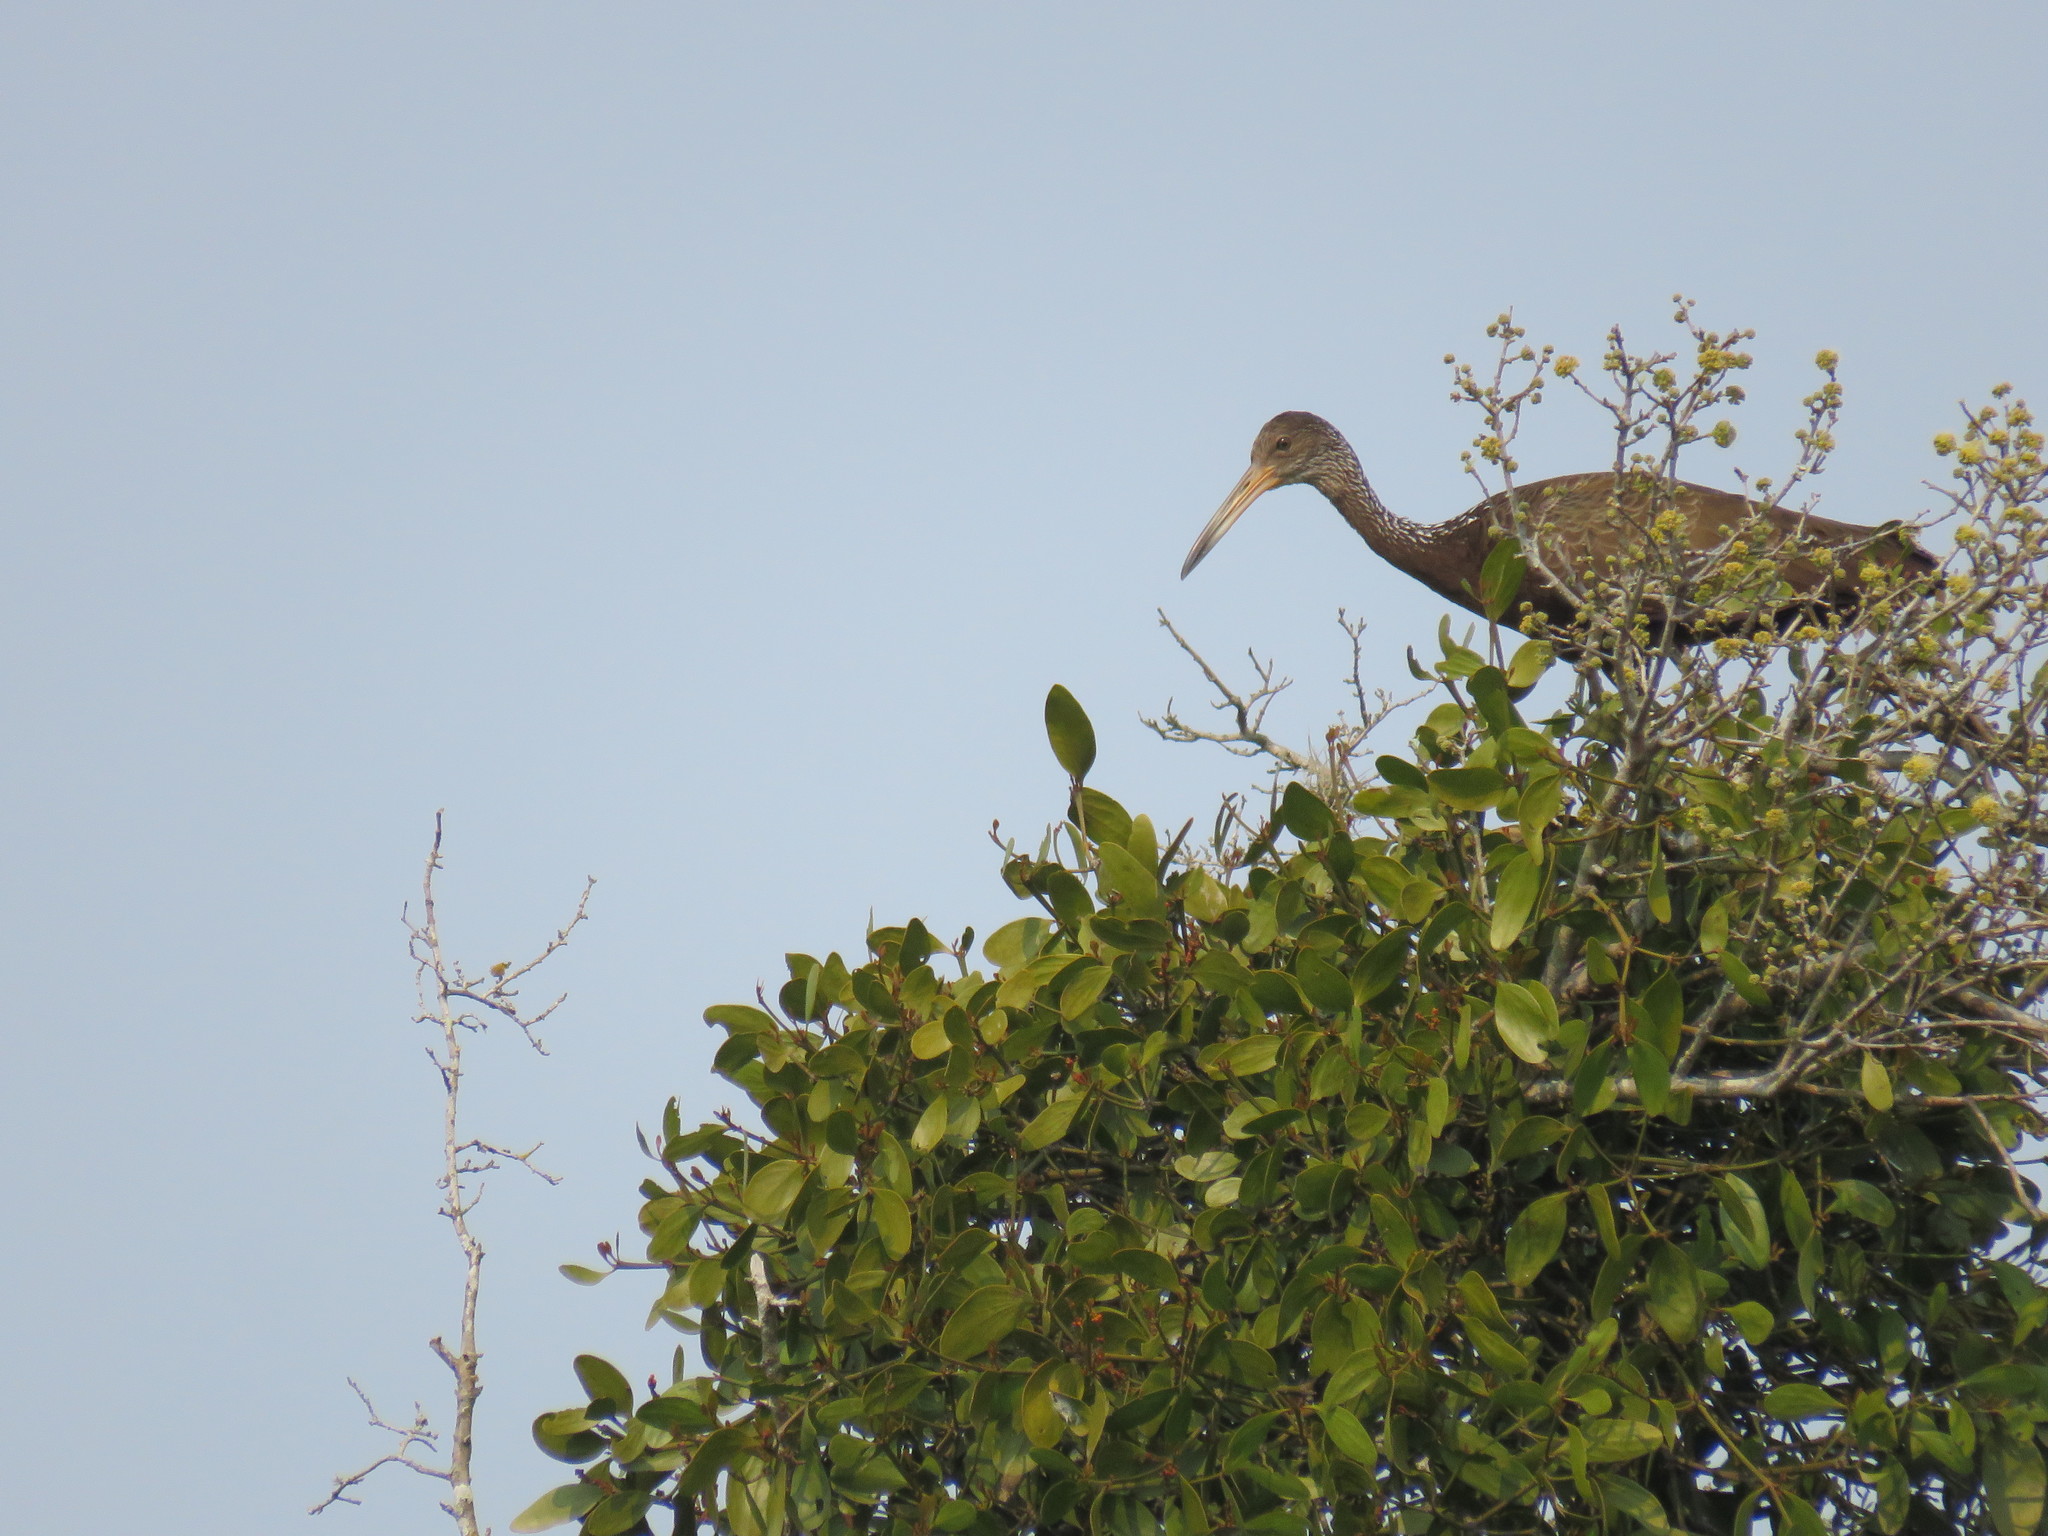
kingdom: Animalia
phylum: Chordata
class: Aves
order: Gruiformes
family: Aramidae
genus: Aramus
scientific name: Aramus guarauna
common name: Limpkin
